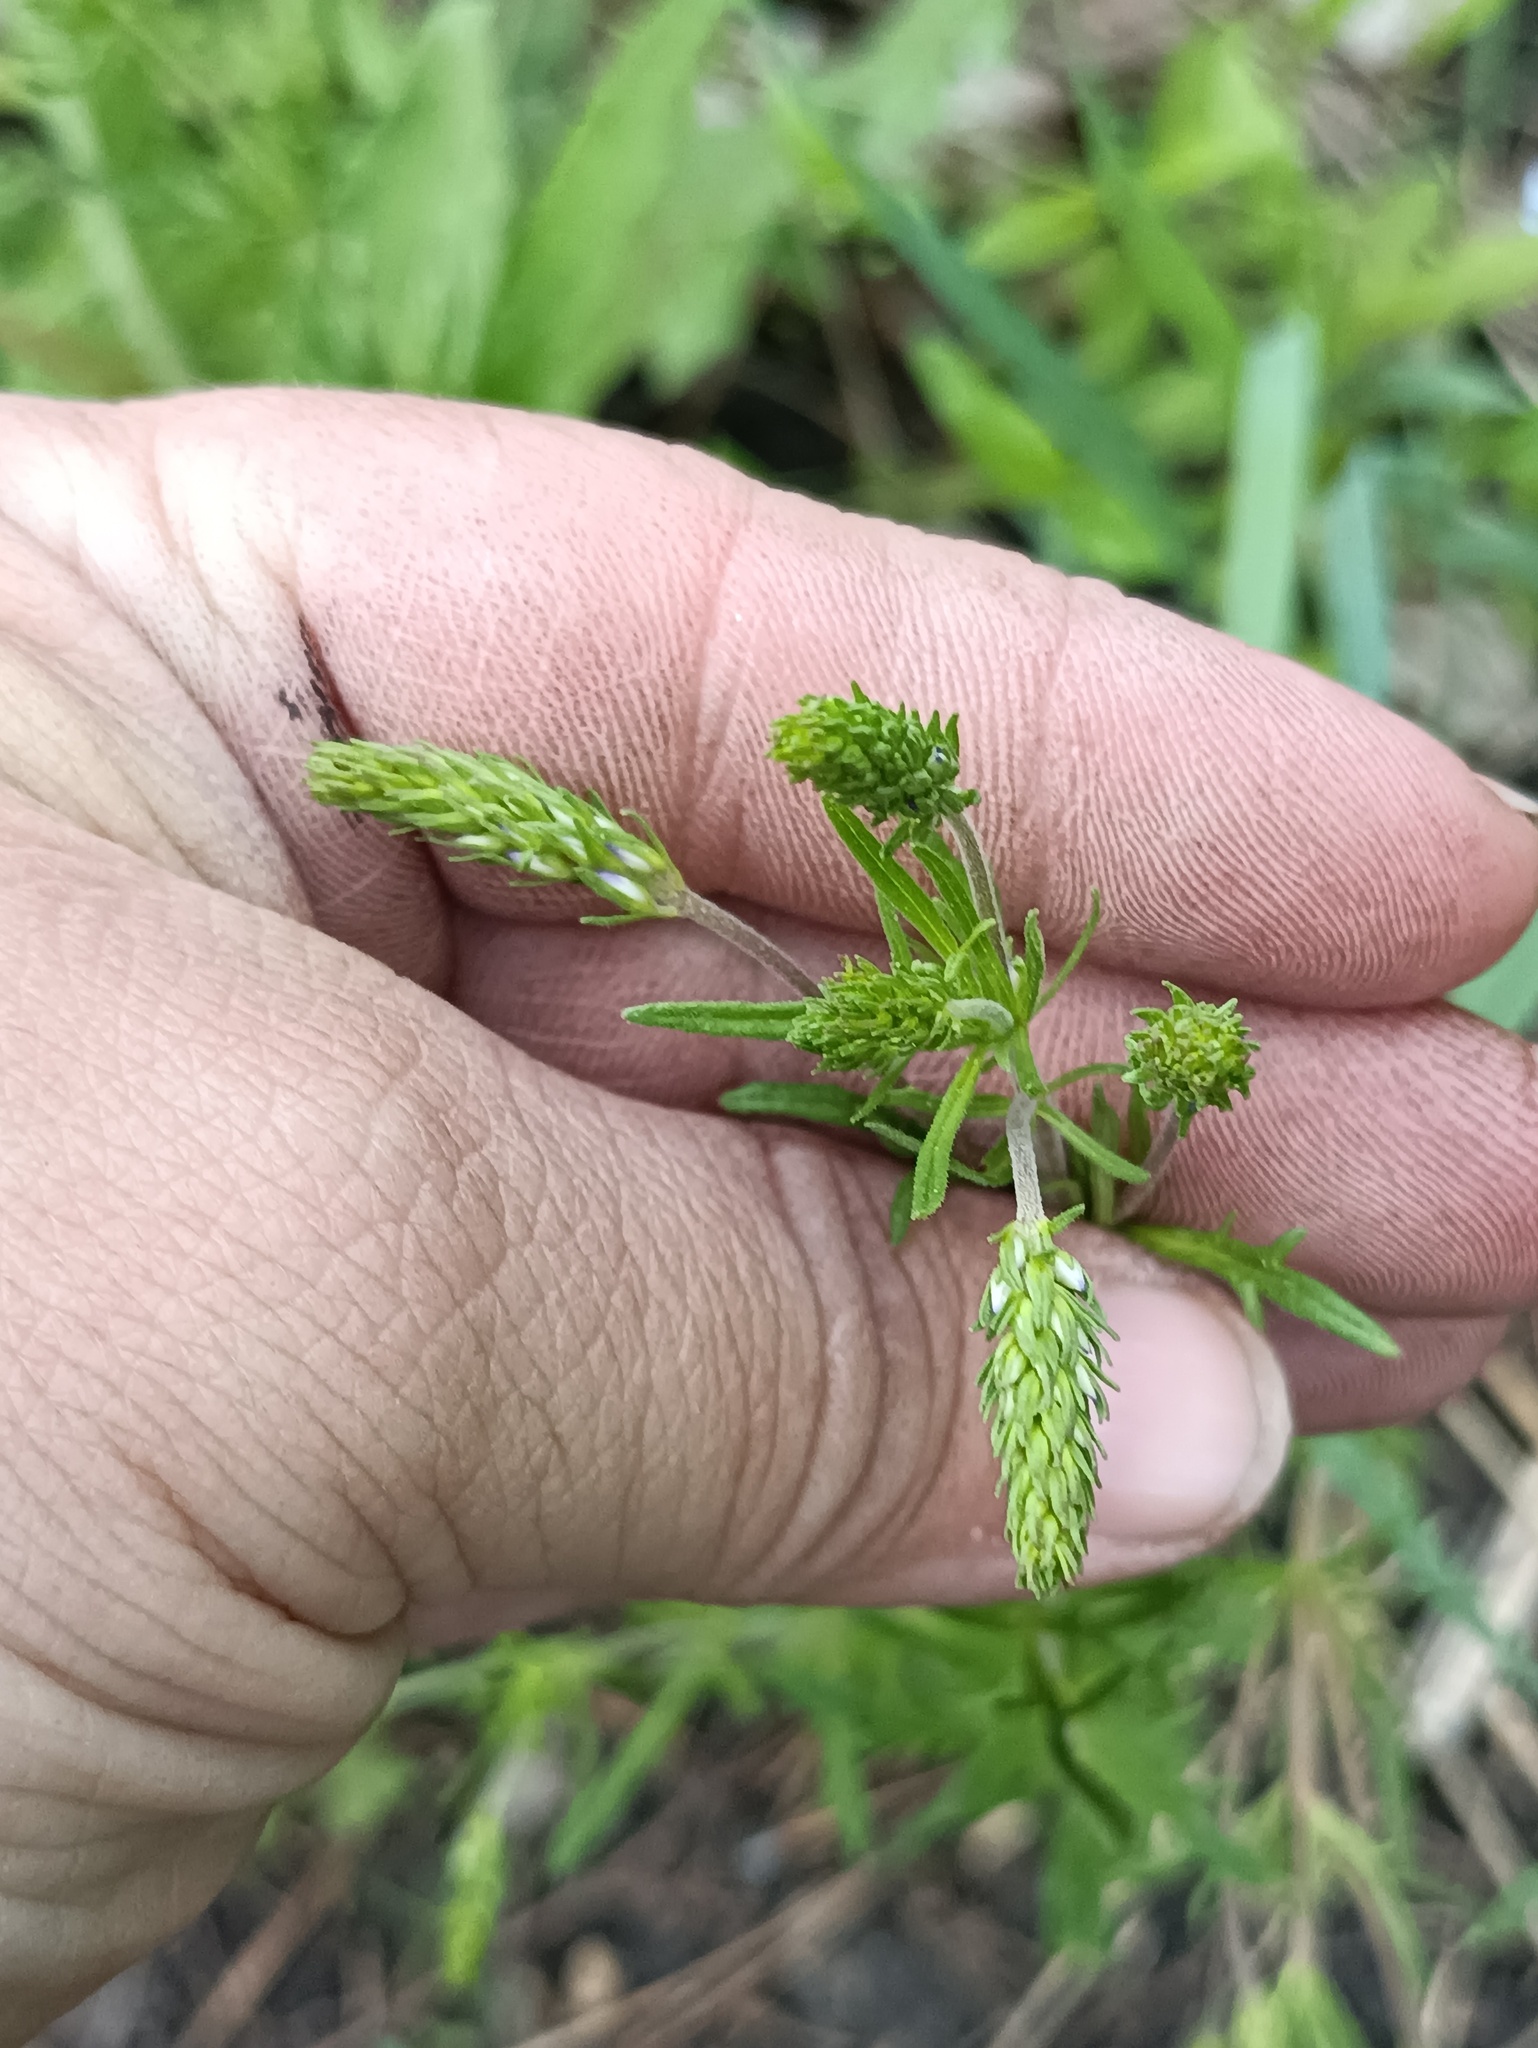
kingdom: Plantae
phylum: Tracheophyta
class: Magnoliopsida
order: Lamiales
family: Plantaginaceae
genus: Veronica
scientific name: Veronica austriaca
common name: Large speedwell
